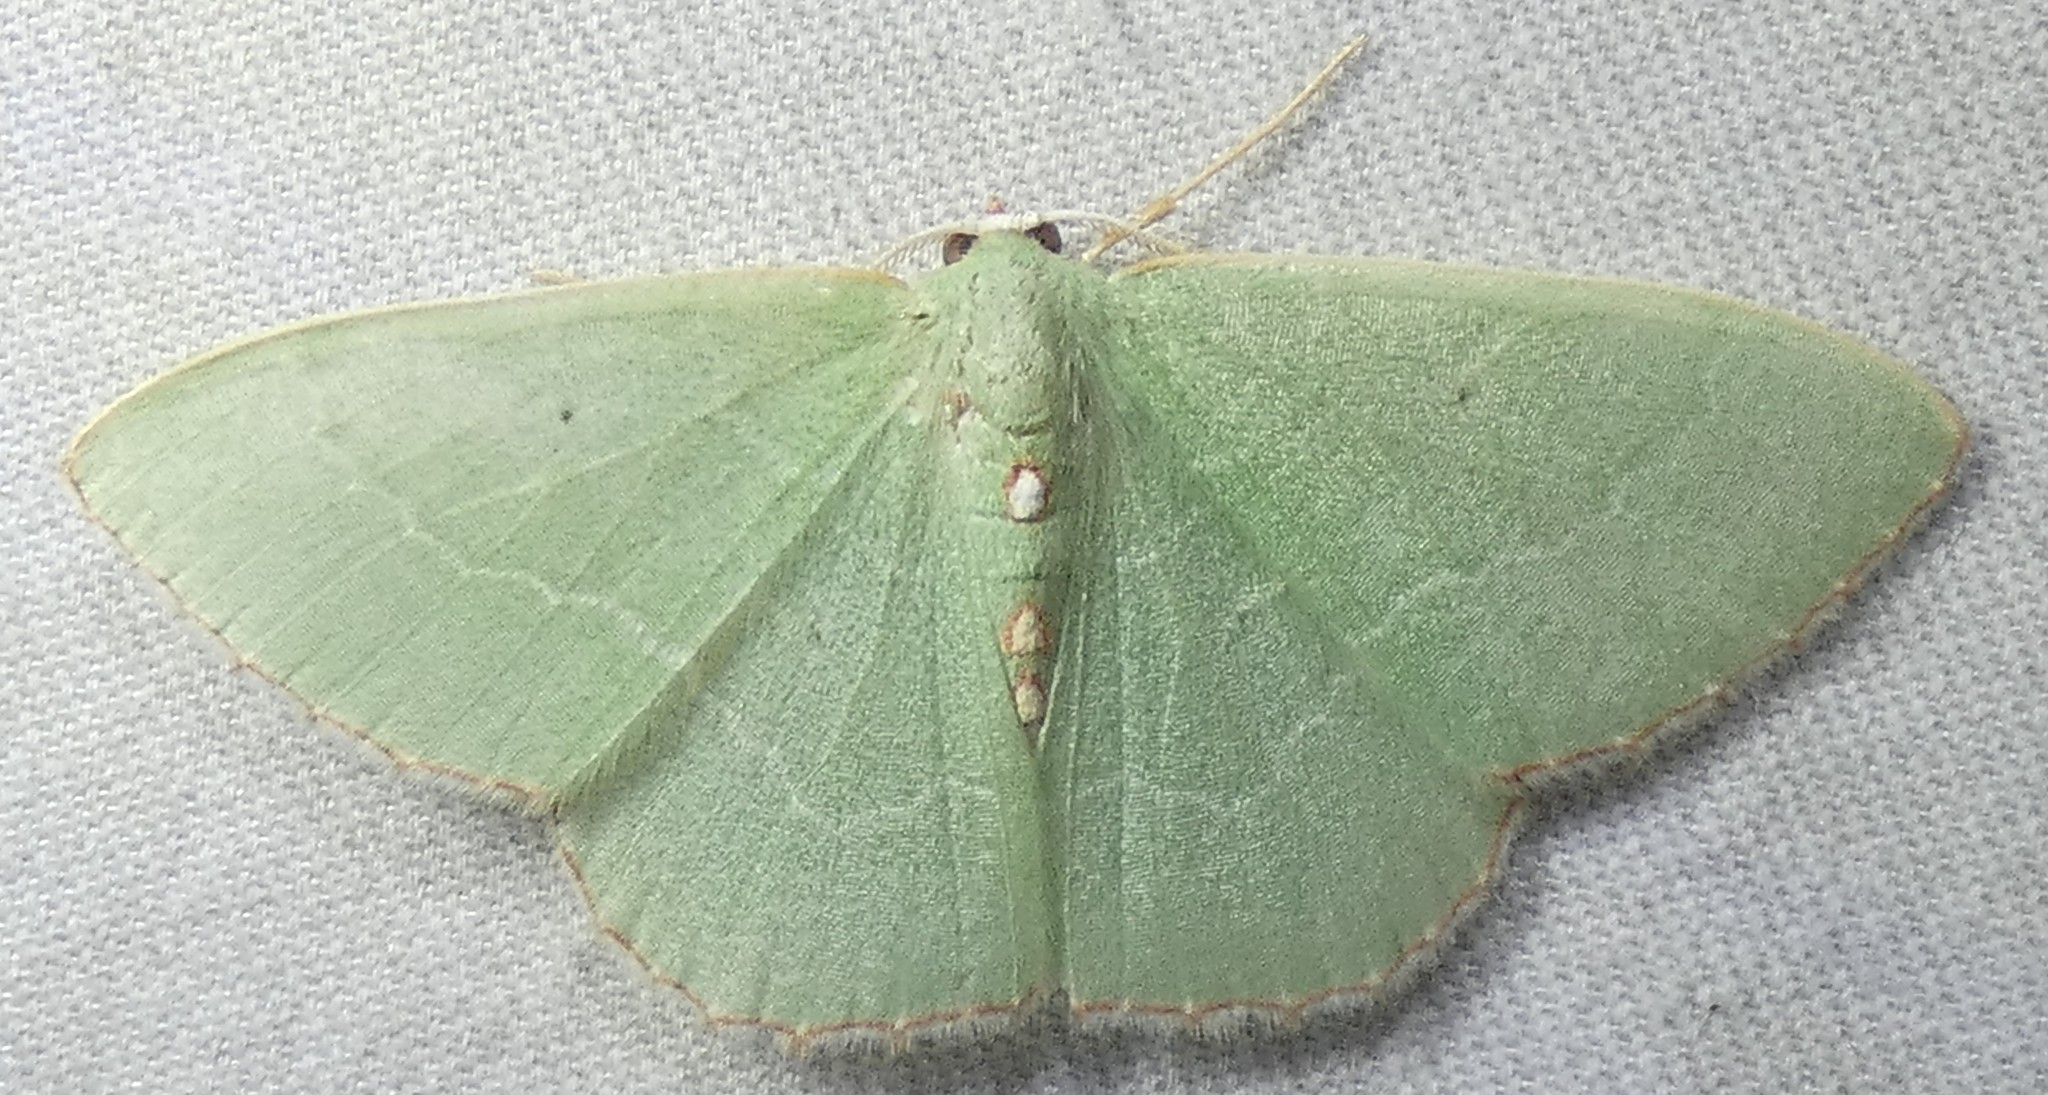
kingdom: Animalia
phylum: Arthropoda
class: Insecta
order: Lepidoptera
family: Geometridae
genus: Nemoria
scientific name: Nemoria lixaria
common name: Red-bordered emerald
